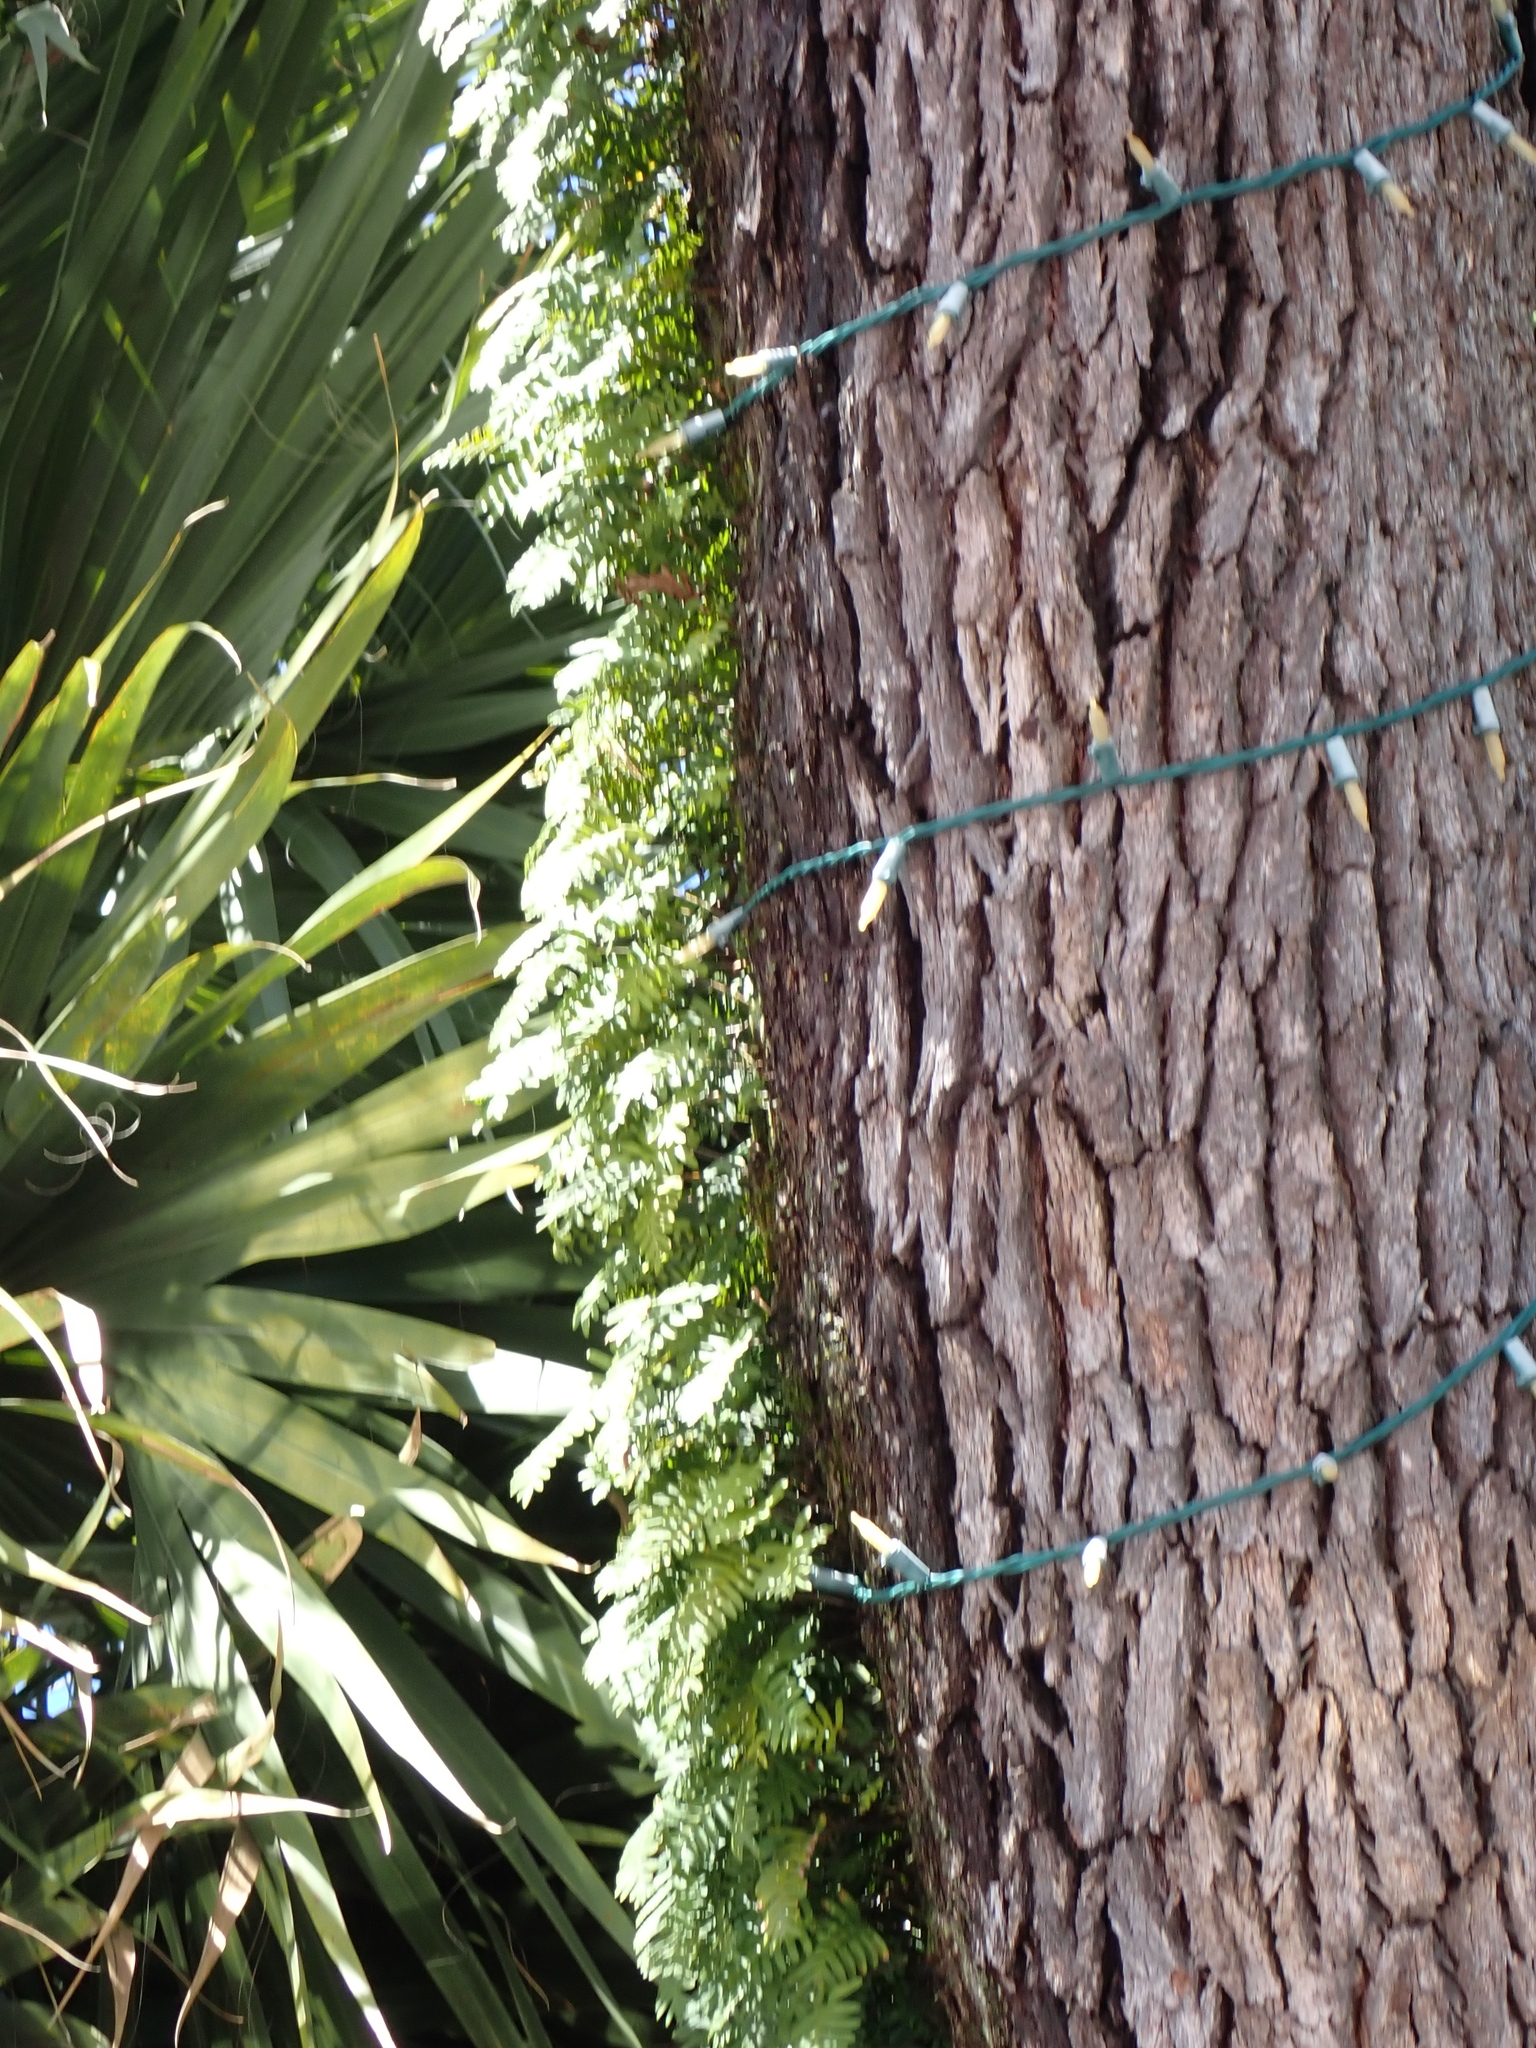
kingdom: Plantae
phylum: Tracheophyta
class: Polypodiopsida
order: Polypodiales
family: Polypodiaceae
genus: Pleopeltis
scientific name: Pleopeltis michauxiana
